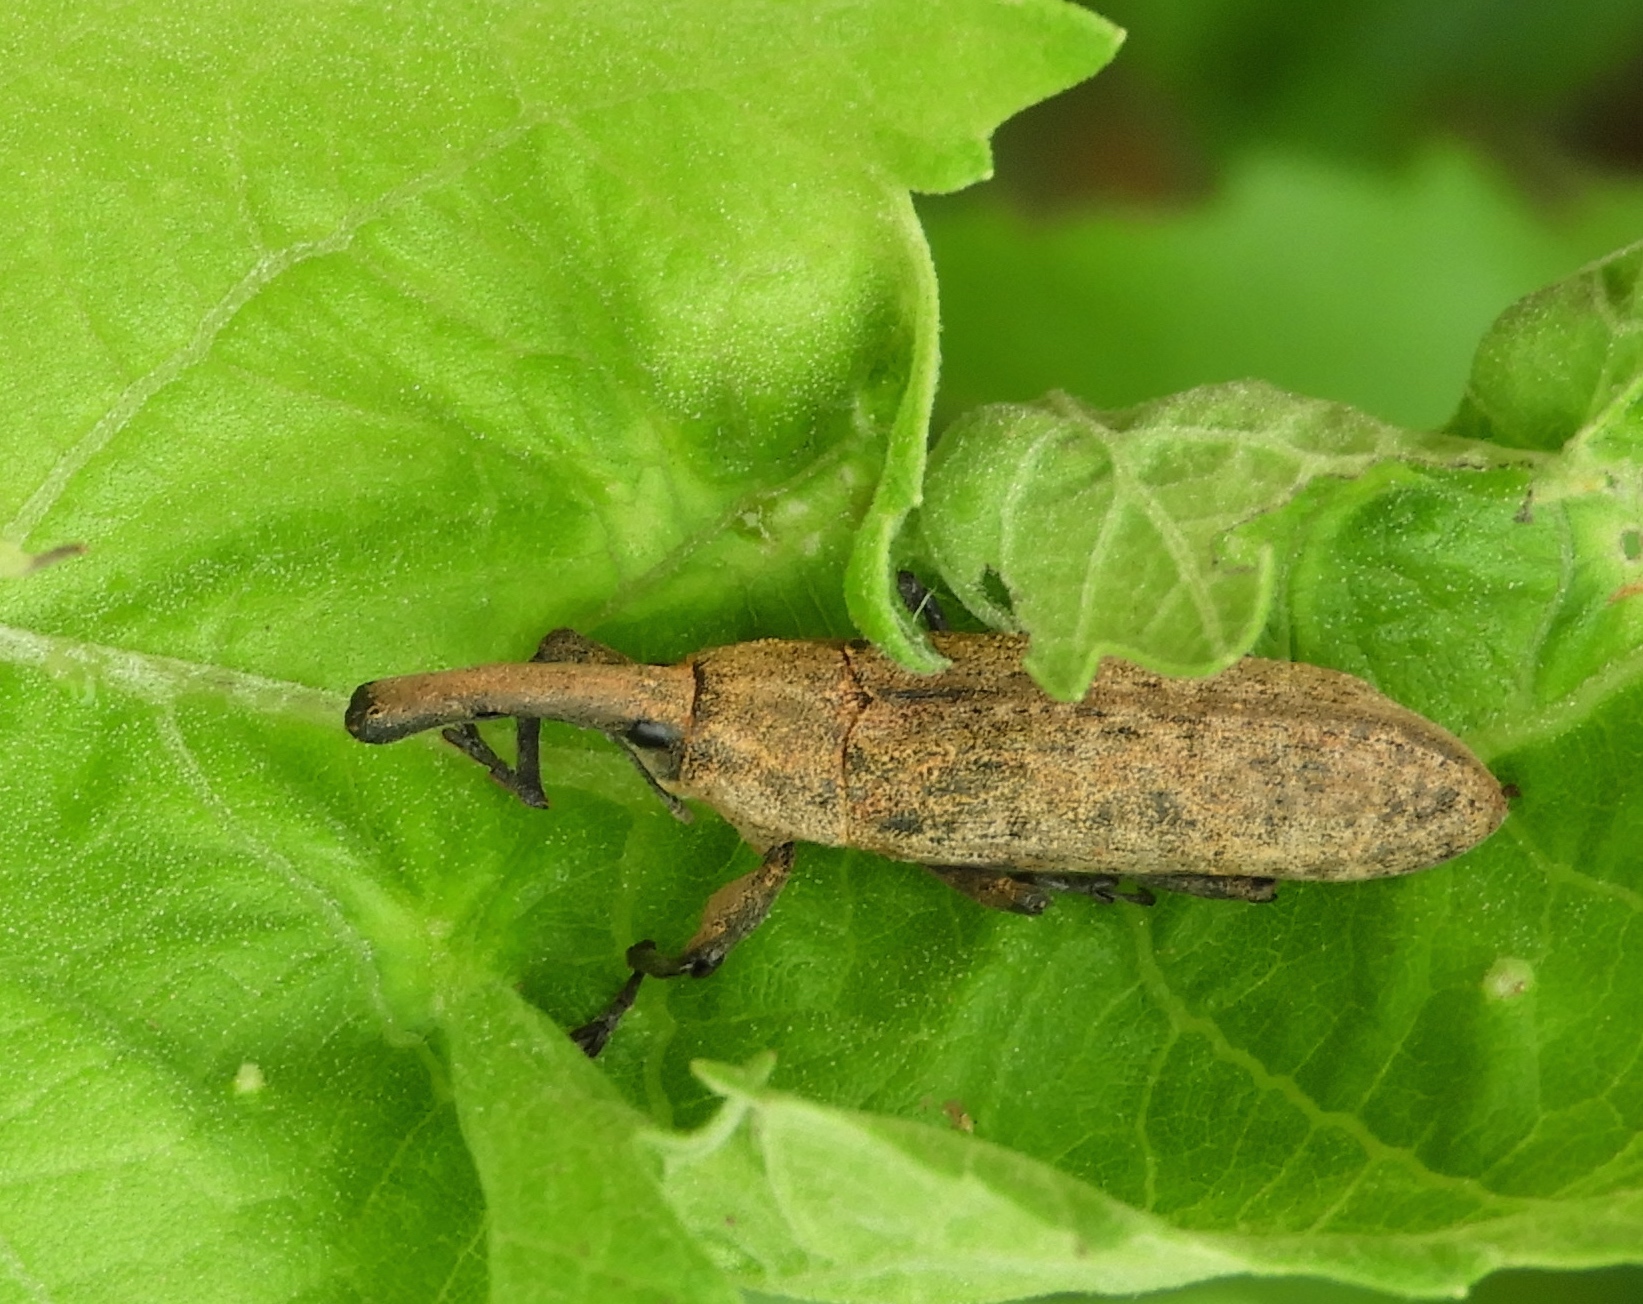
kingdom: Animalia
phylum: Arthropoda
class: Insecta
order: Coleoptera
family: Curculionidae
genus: Lixus
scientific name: Lixus
